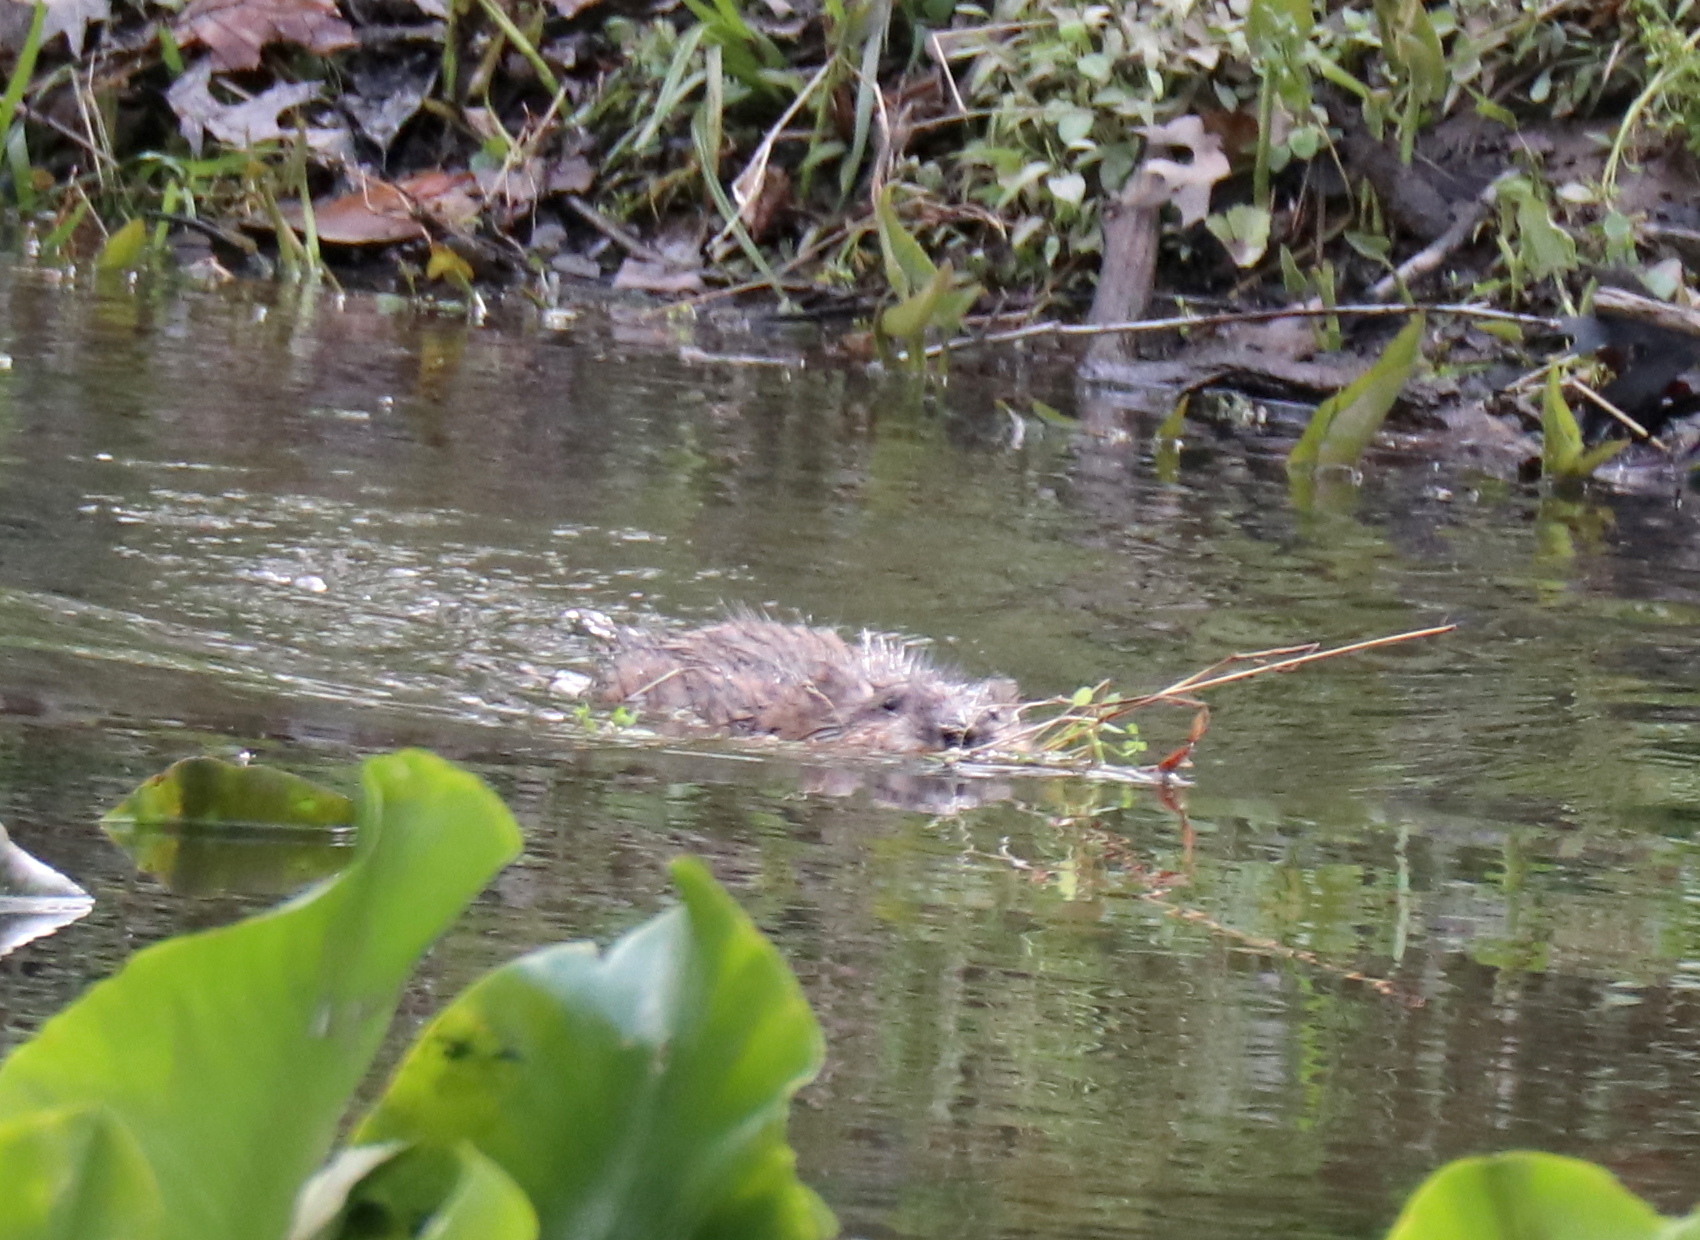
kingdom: Animalia
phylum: Chordata
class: Mammalia
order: Rodentia
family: Cricetidae
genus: Ondatra
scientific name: Ondatra zibethicus
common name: Muskrat
